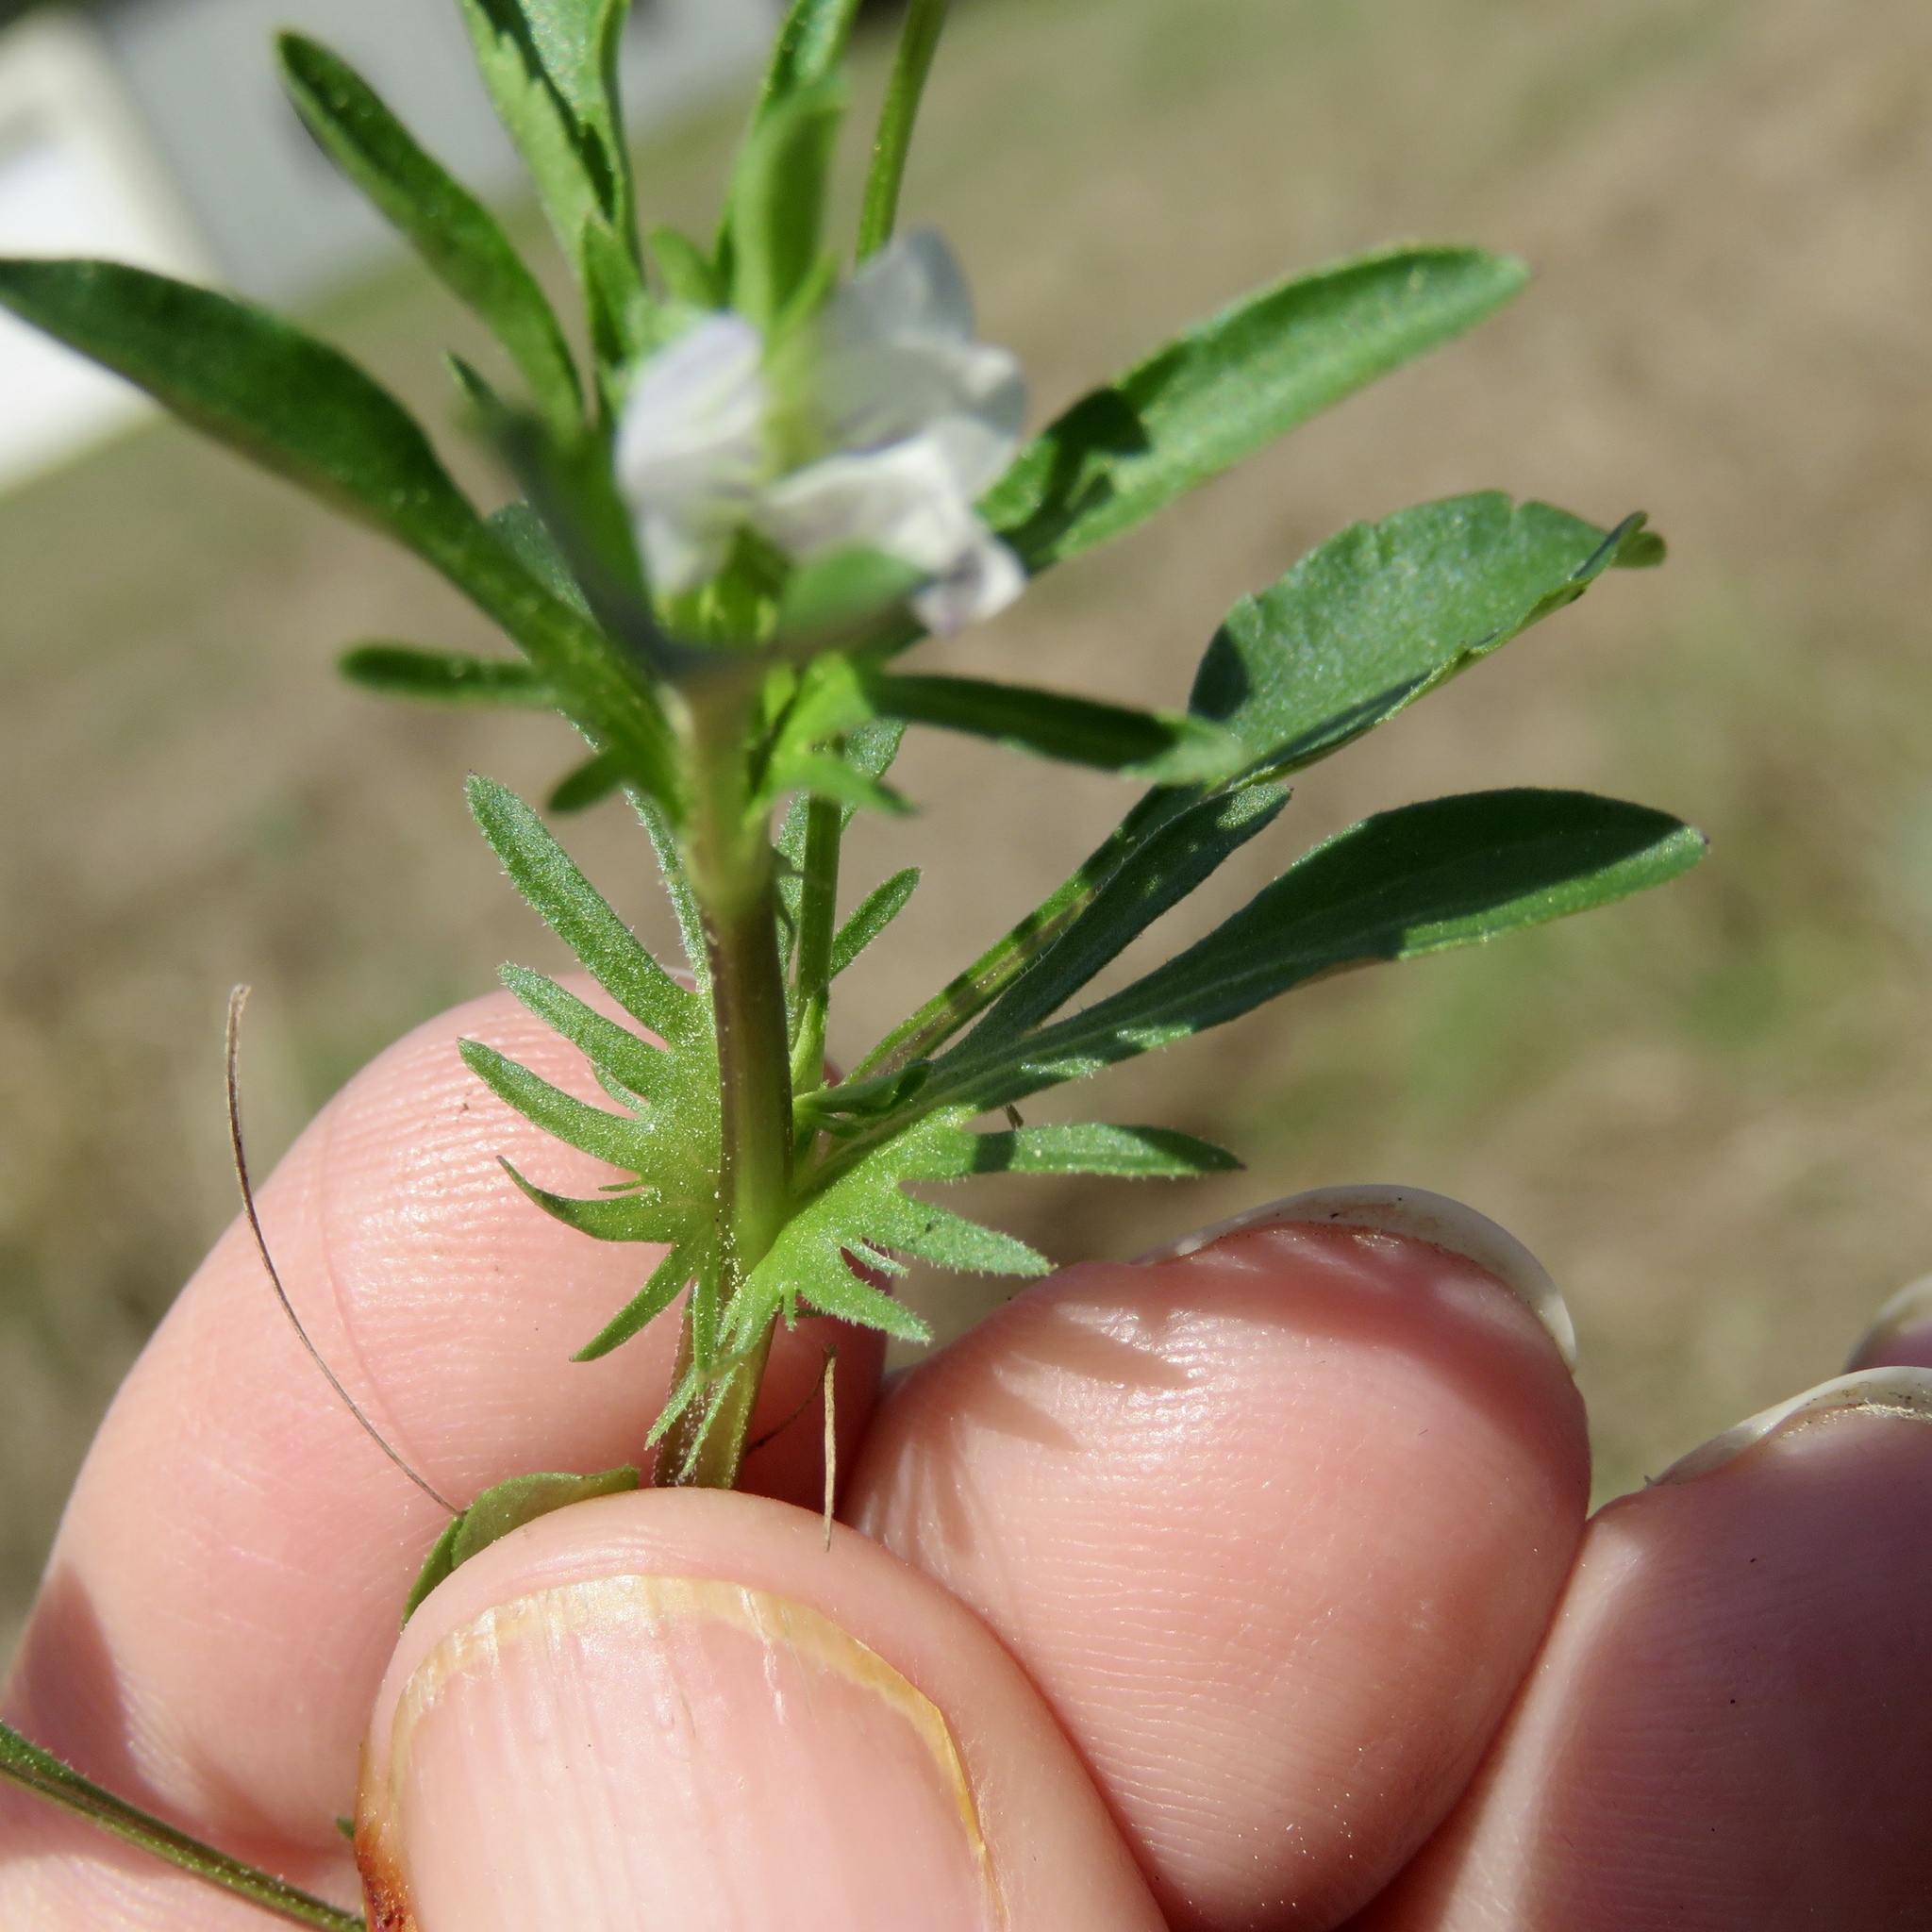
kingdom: Plantae
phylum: Tracheophyta
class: Magnoliopsida
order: Malpighiales
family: Violaceae
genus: Viola
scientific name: Viola rafinesquei
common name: American field pansy
